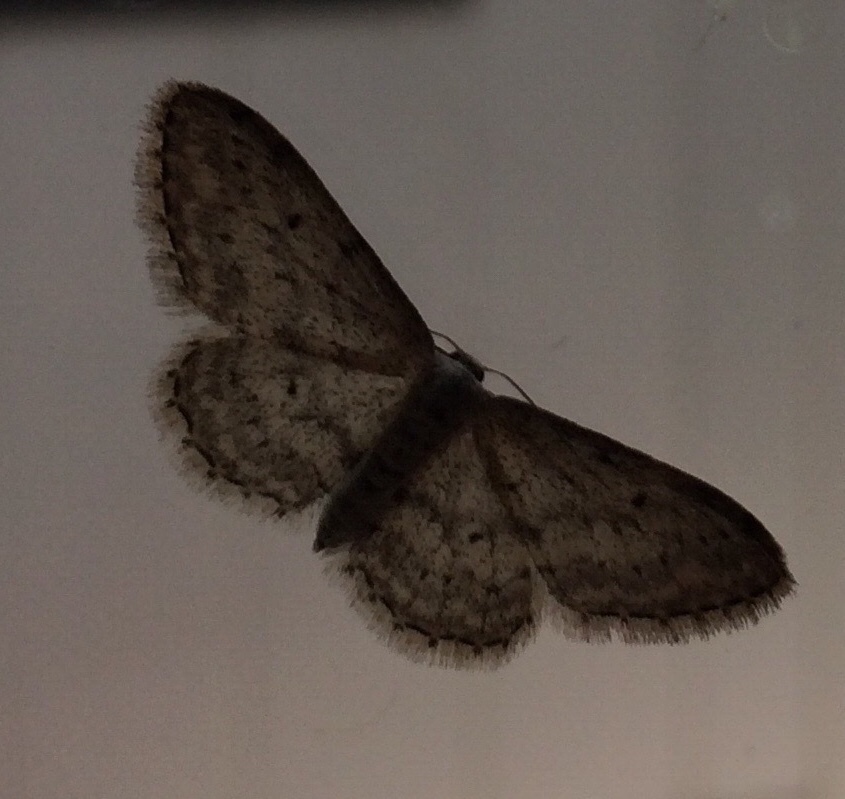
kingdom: Animalia
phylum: Arthropoda
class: Insecta
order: Lepidoptera
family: Geometridae
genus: Idaea
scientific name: Idaea seriata
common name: Small dusty wave
